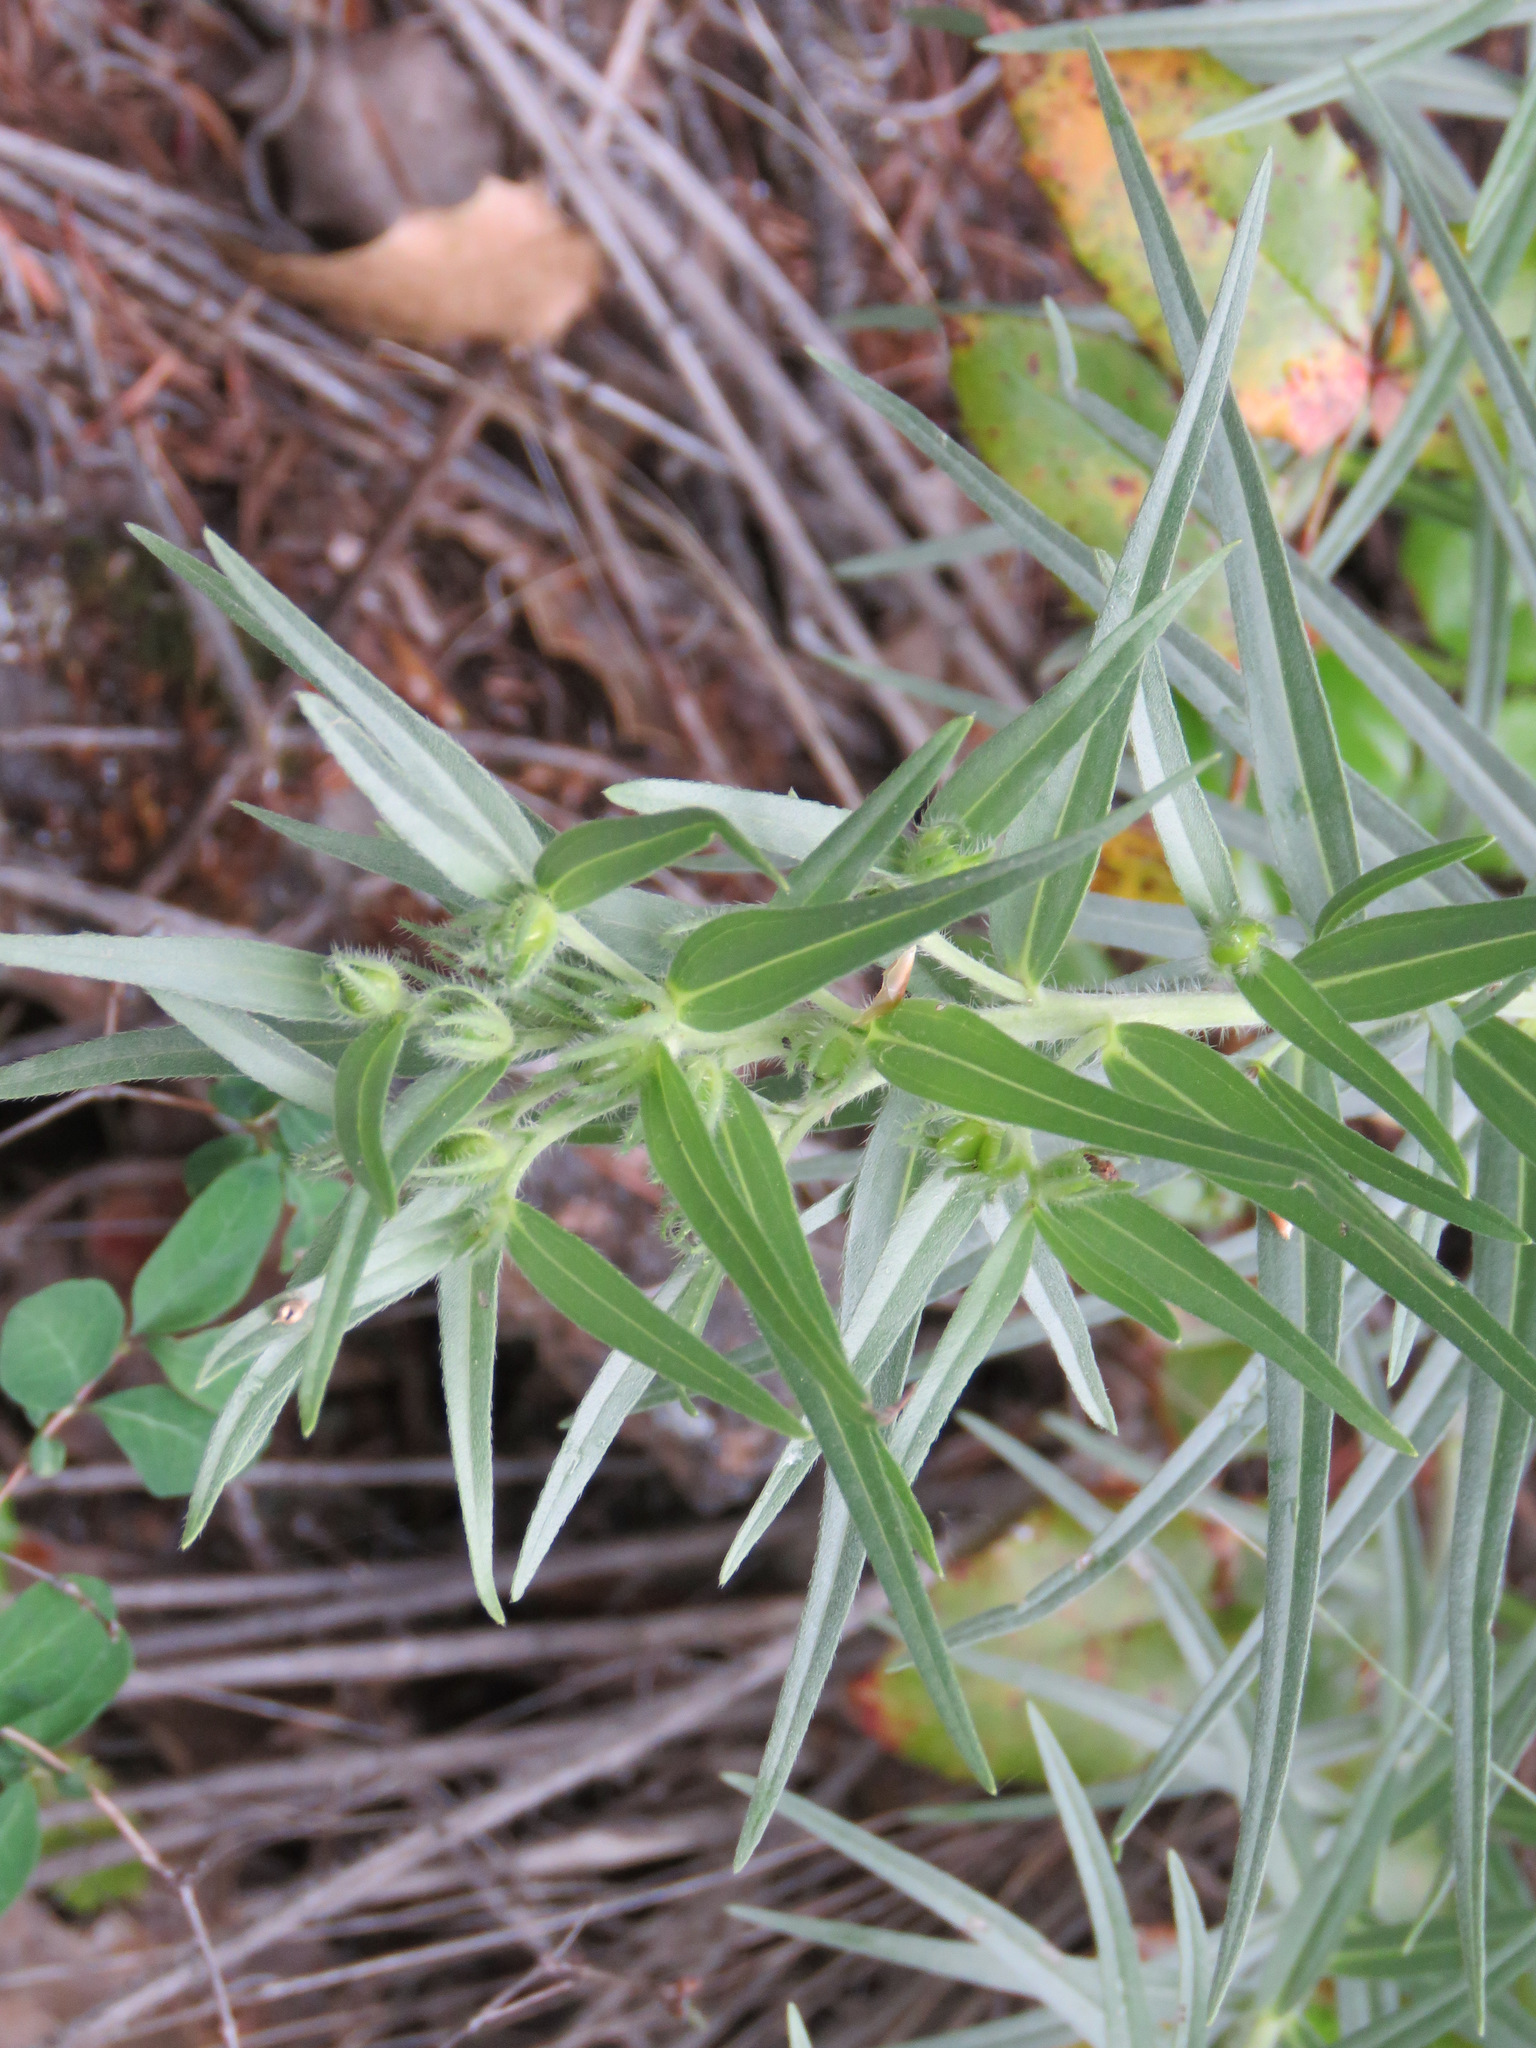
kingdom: Plantae
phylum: Tracheophyta
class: Magnoliopsida
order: Boraginales
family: Boraginaceae
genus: Lithospermum
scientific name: Lithospermum ruderale
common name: Western gromwell
